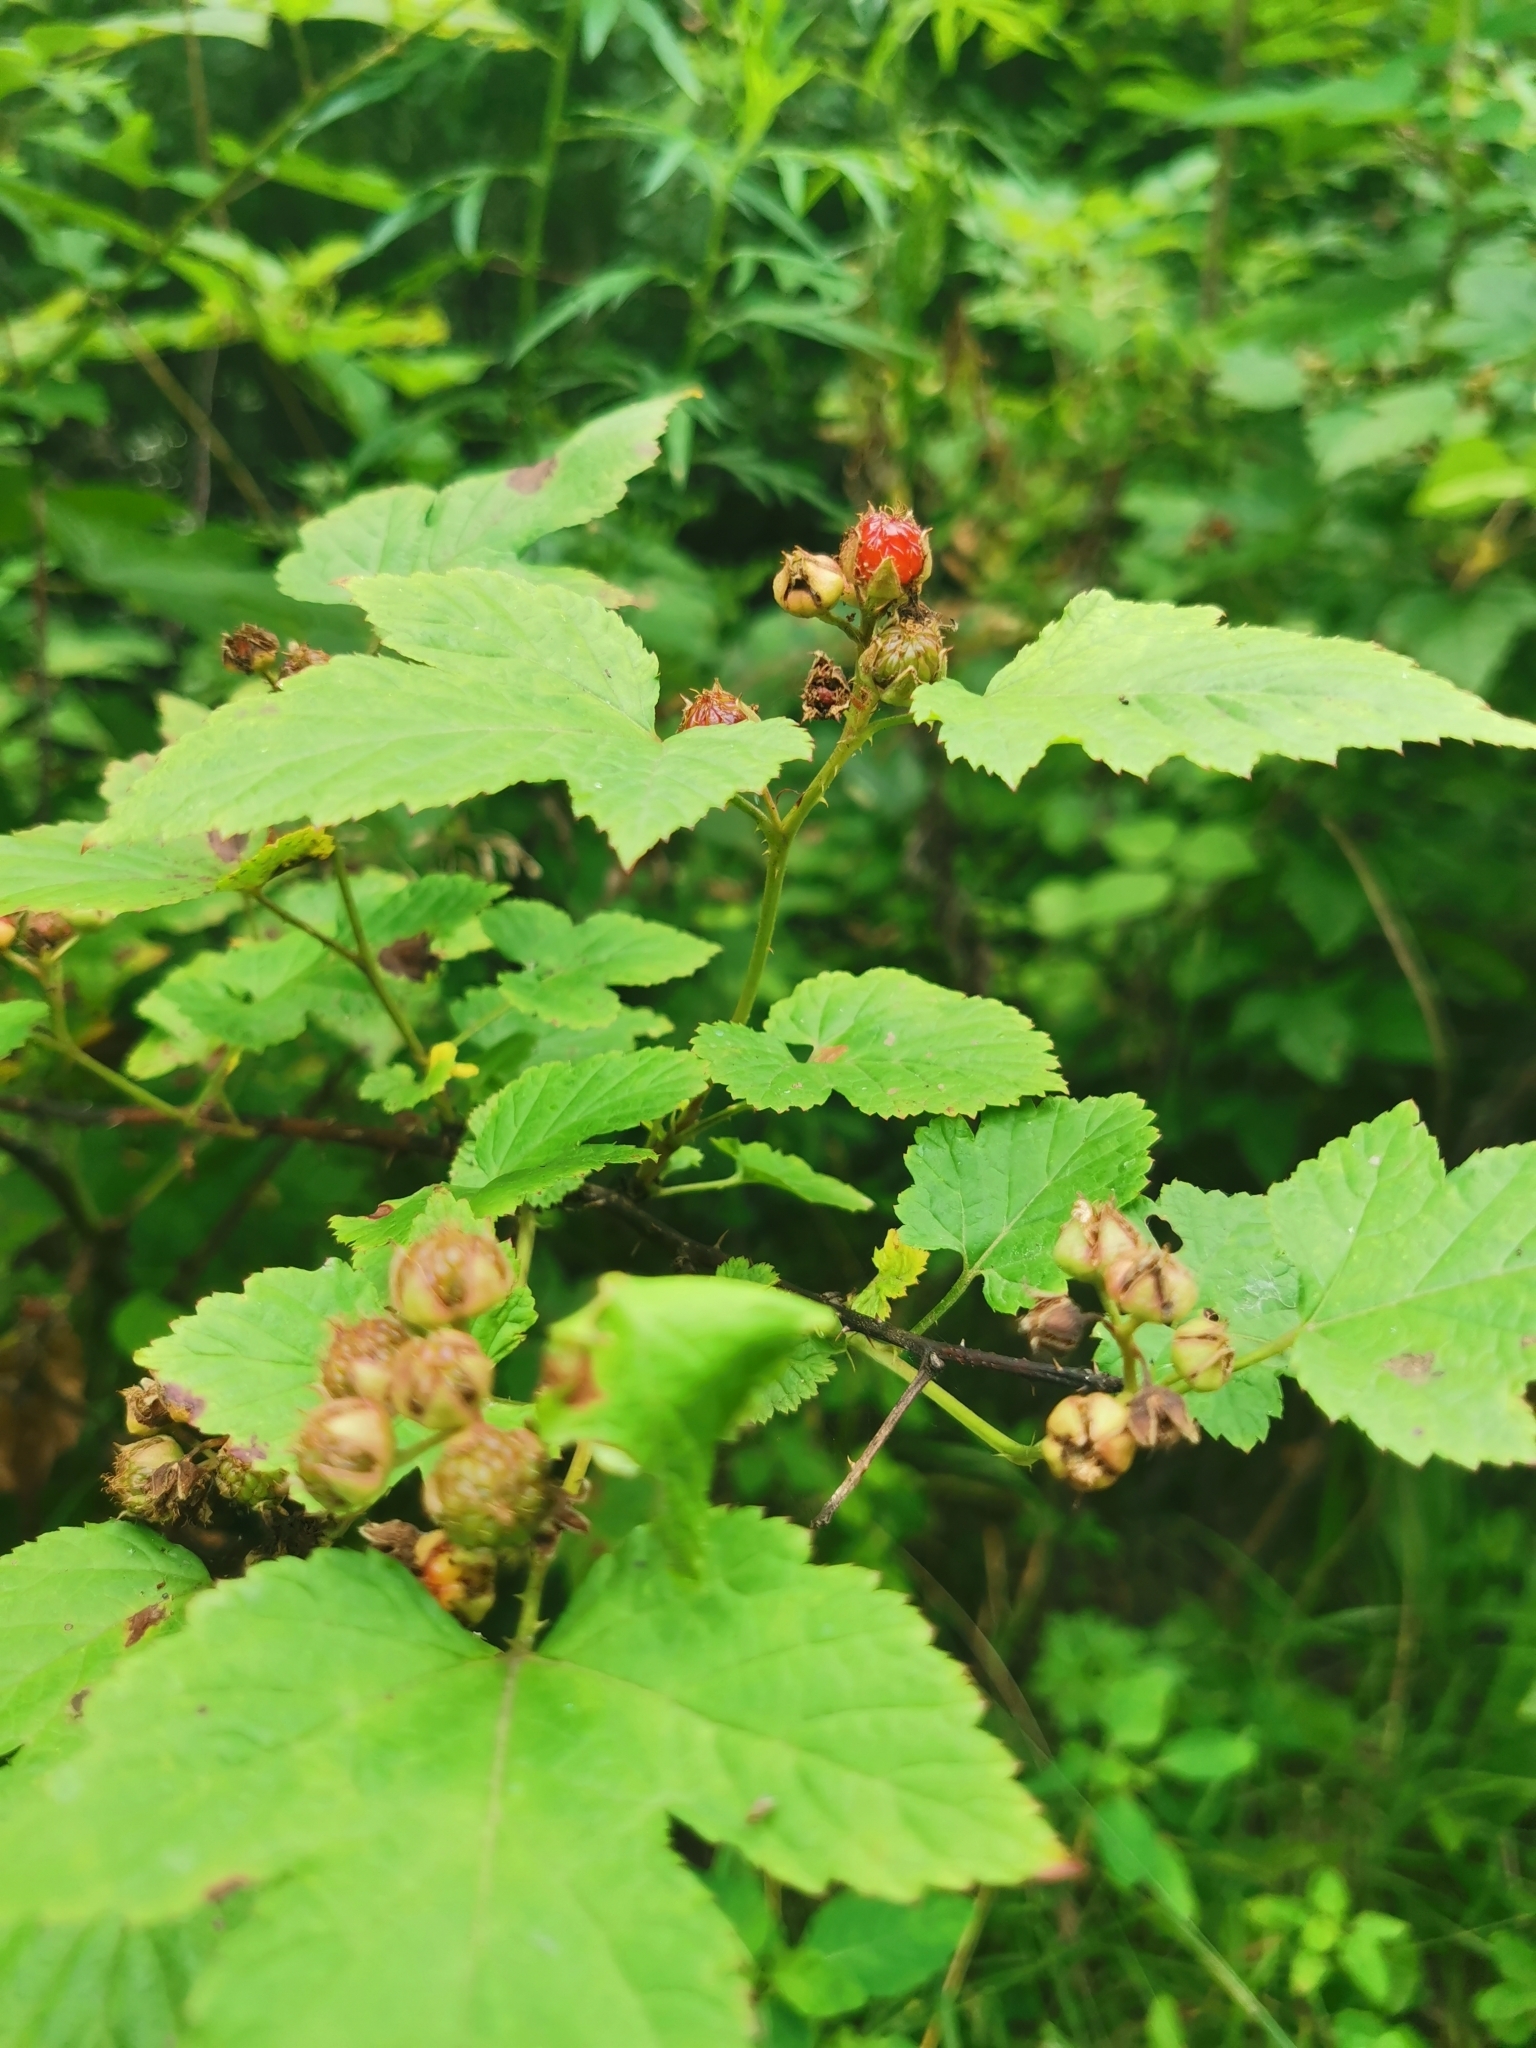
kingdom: Plantae
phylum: Tracheophyta
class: Magnoliopsida
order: Rosales
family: Rosaceae
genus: Rubus
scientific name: Rubus crataegifolius
